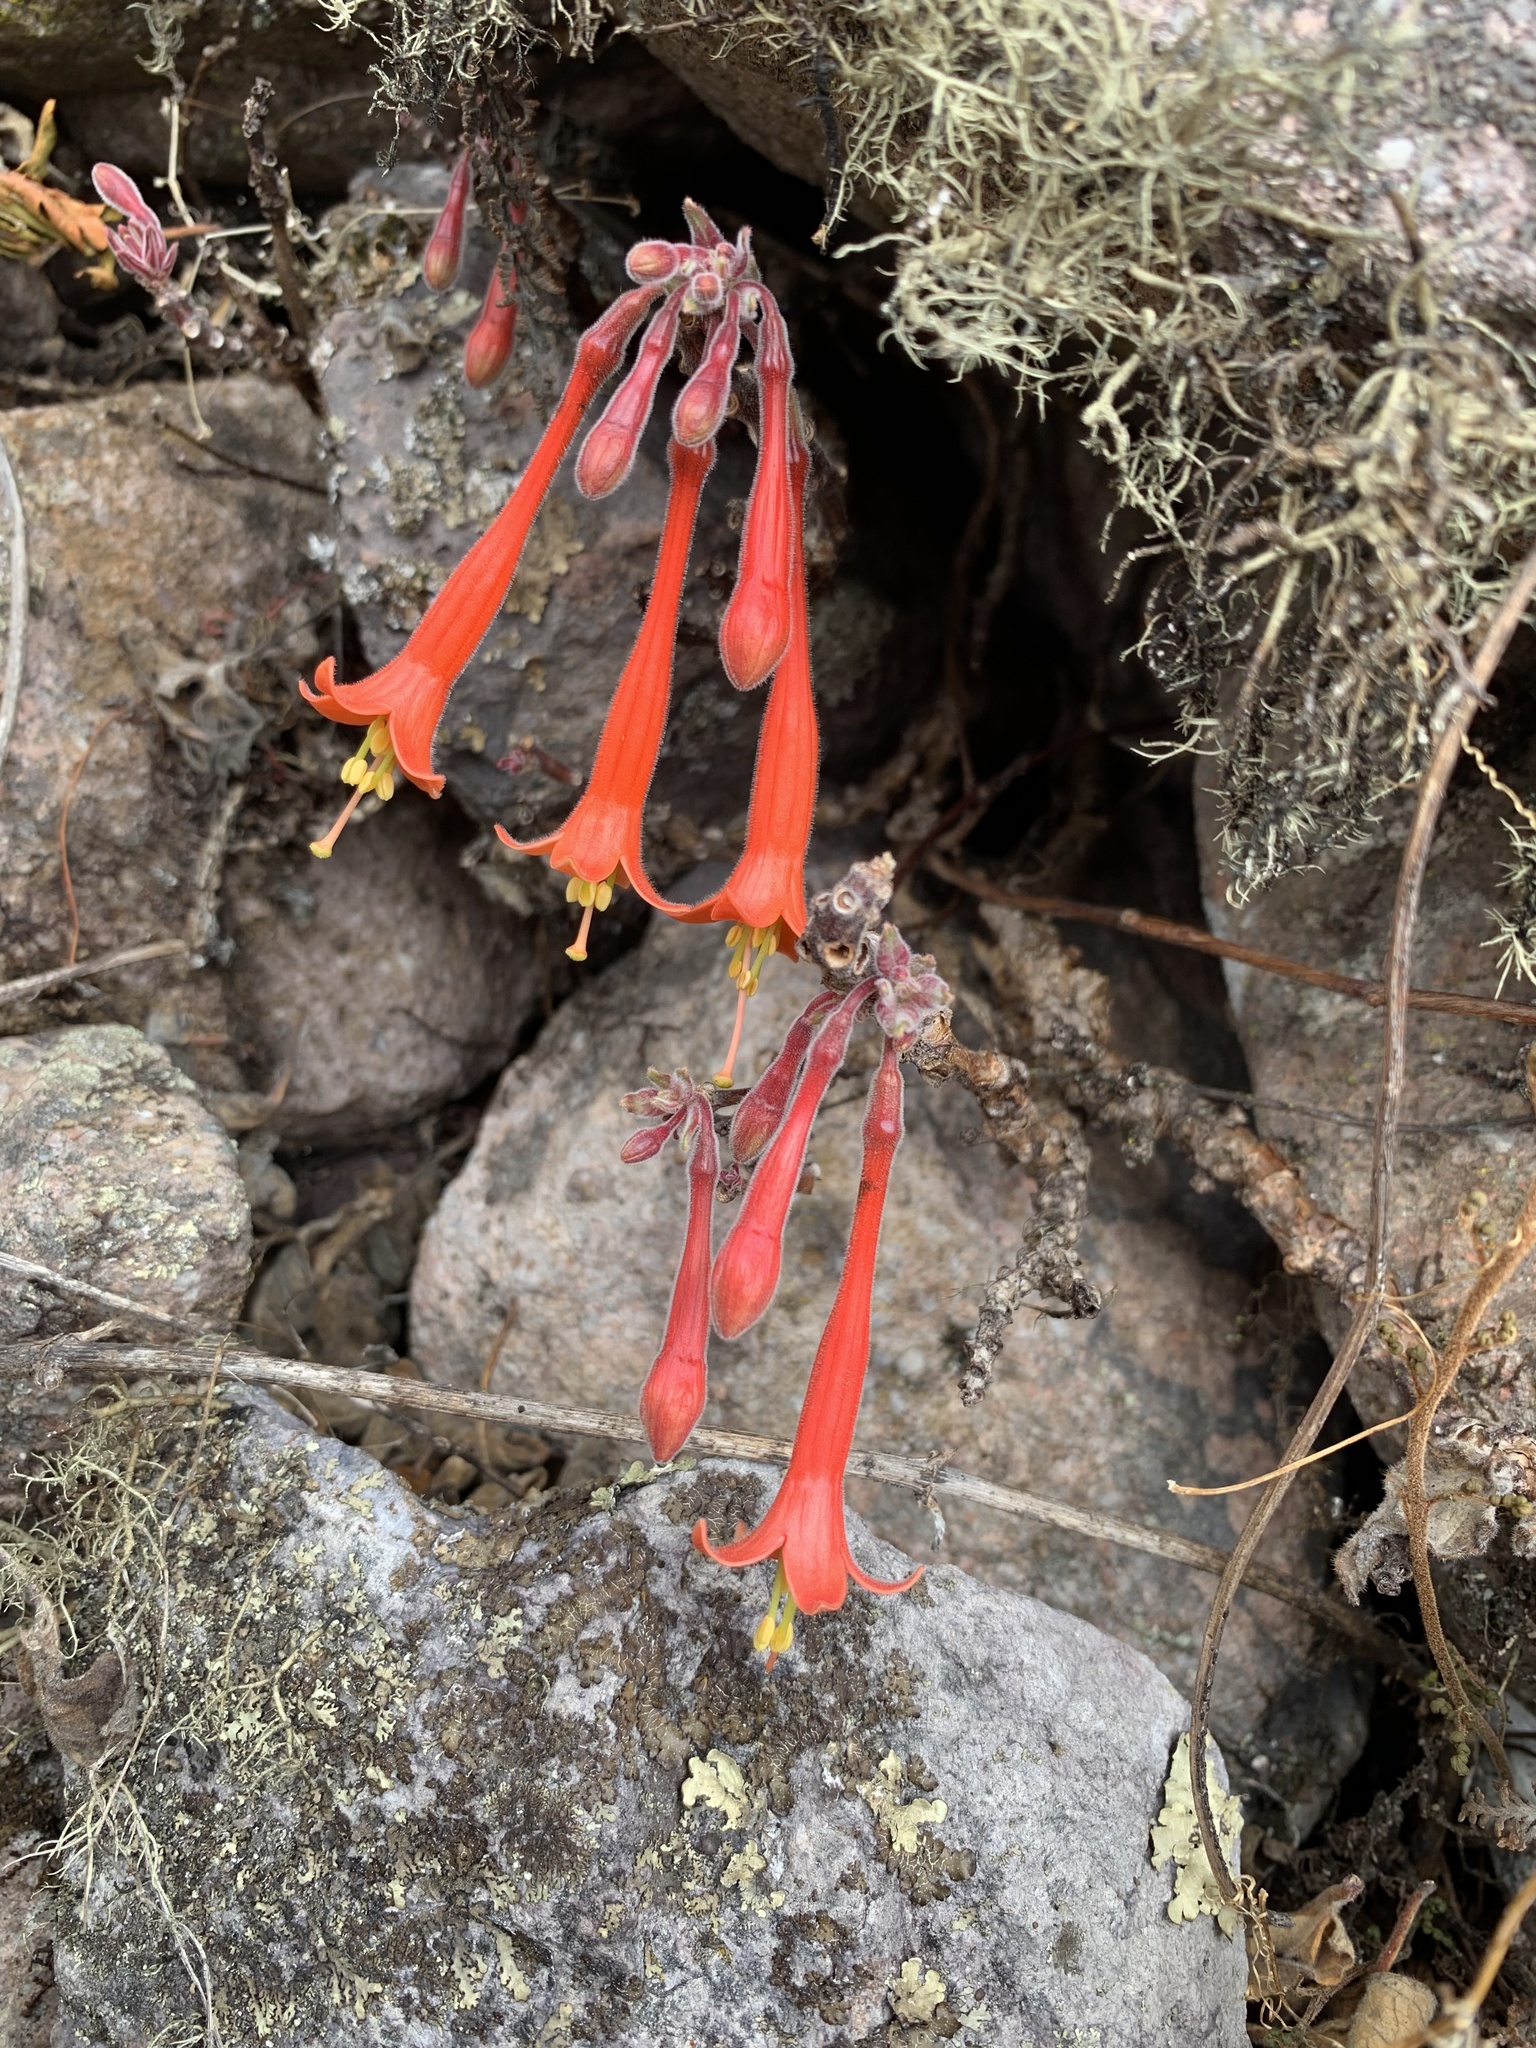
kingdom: Plantae
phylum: Tracheophyta
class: Magnoliopsida
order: Myrtales
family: Onagraceae
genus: Fuchsia
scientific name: Fuchsia apetala
